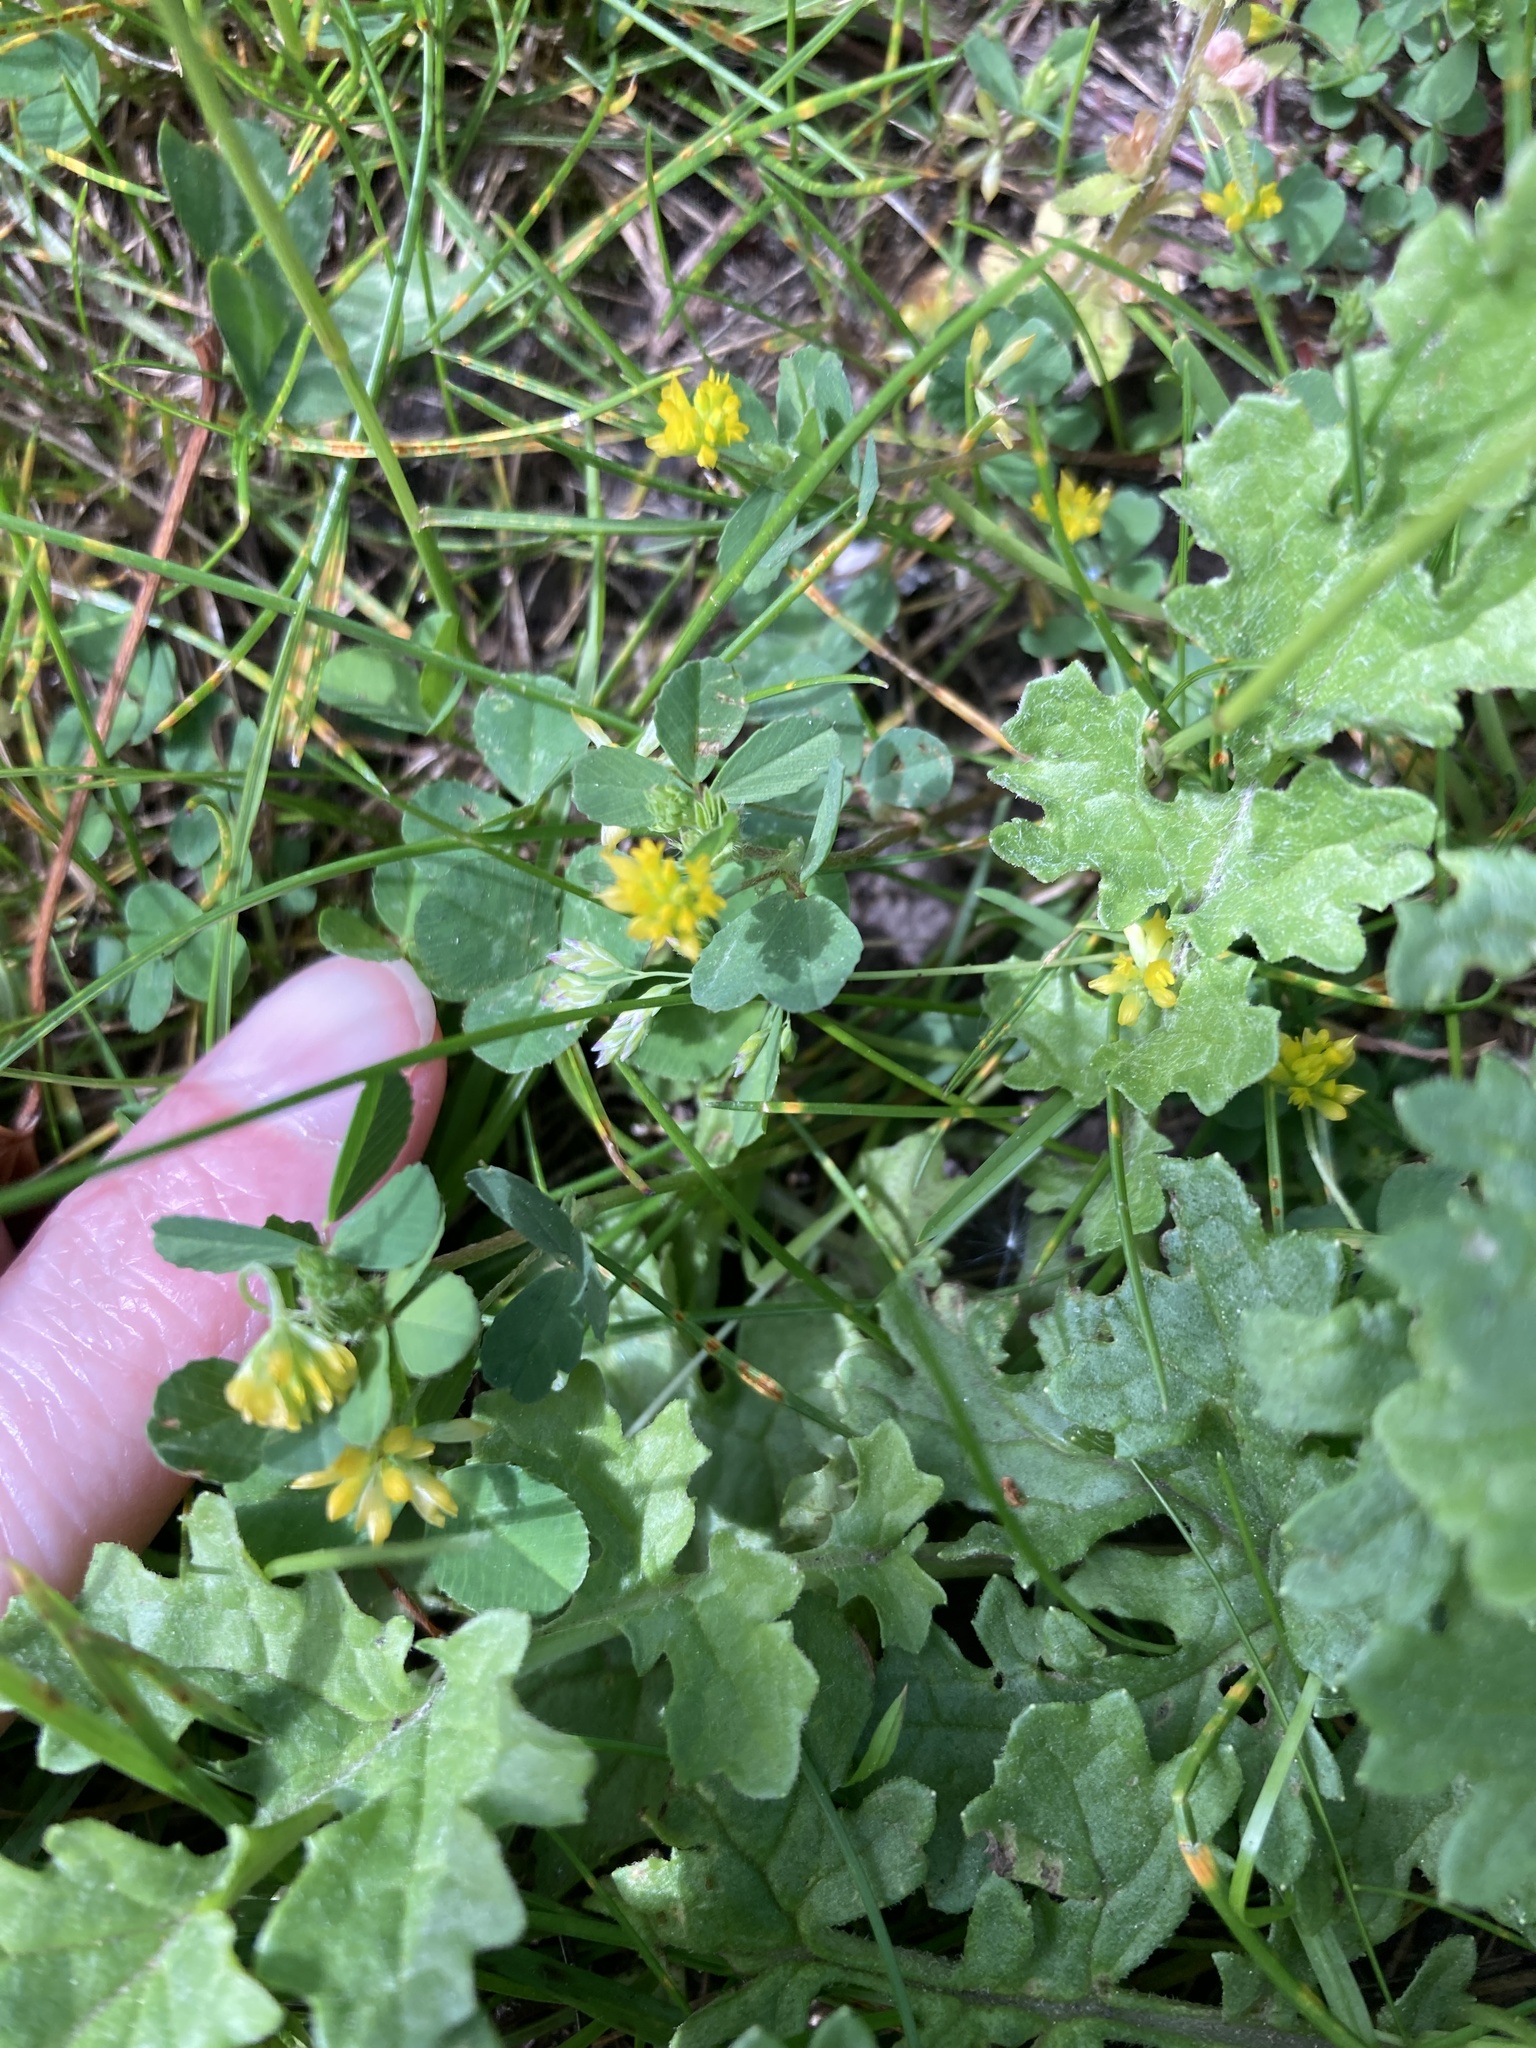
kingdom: Plantae
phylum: Tracheophyta
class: Magnoliopsida
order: Fabales
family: Fabaceae
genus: Trifolium
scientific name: Trifolium dubium
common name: Suckling clover
